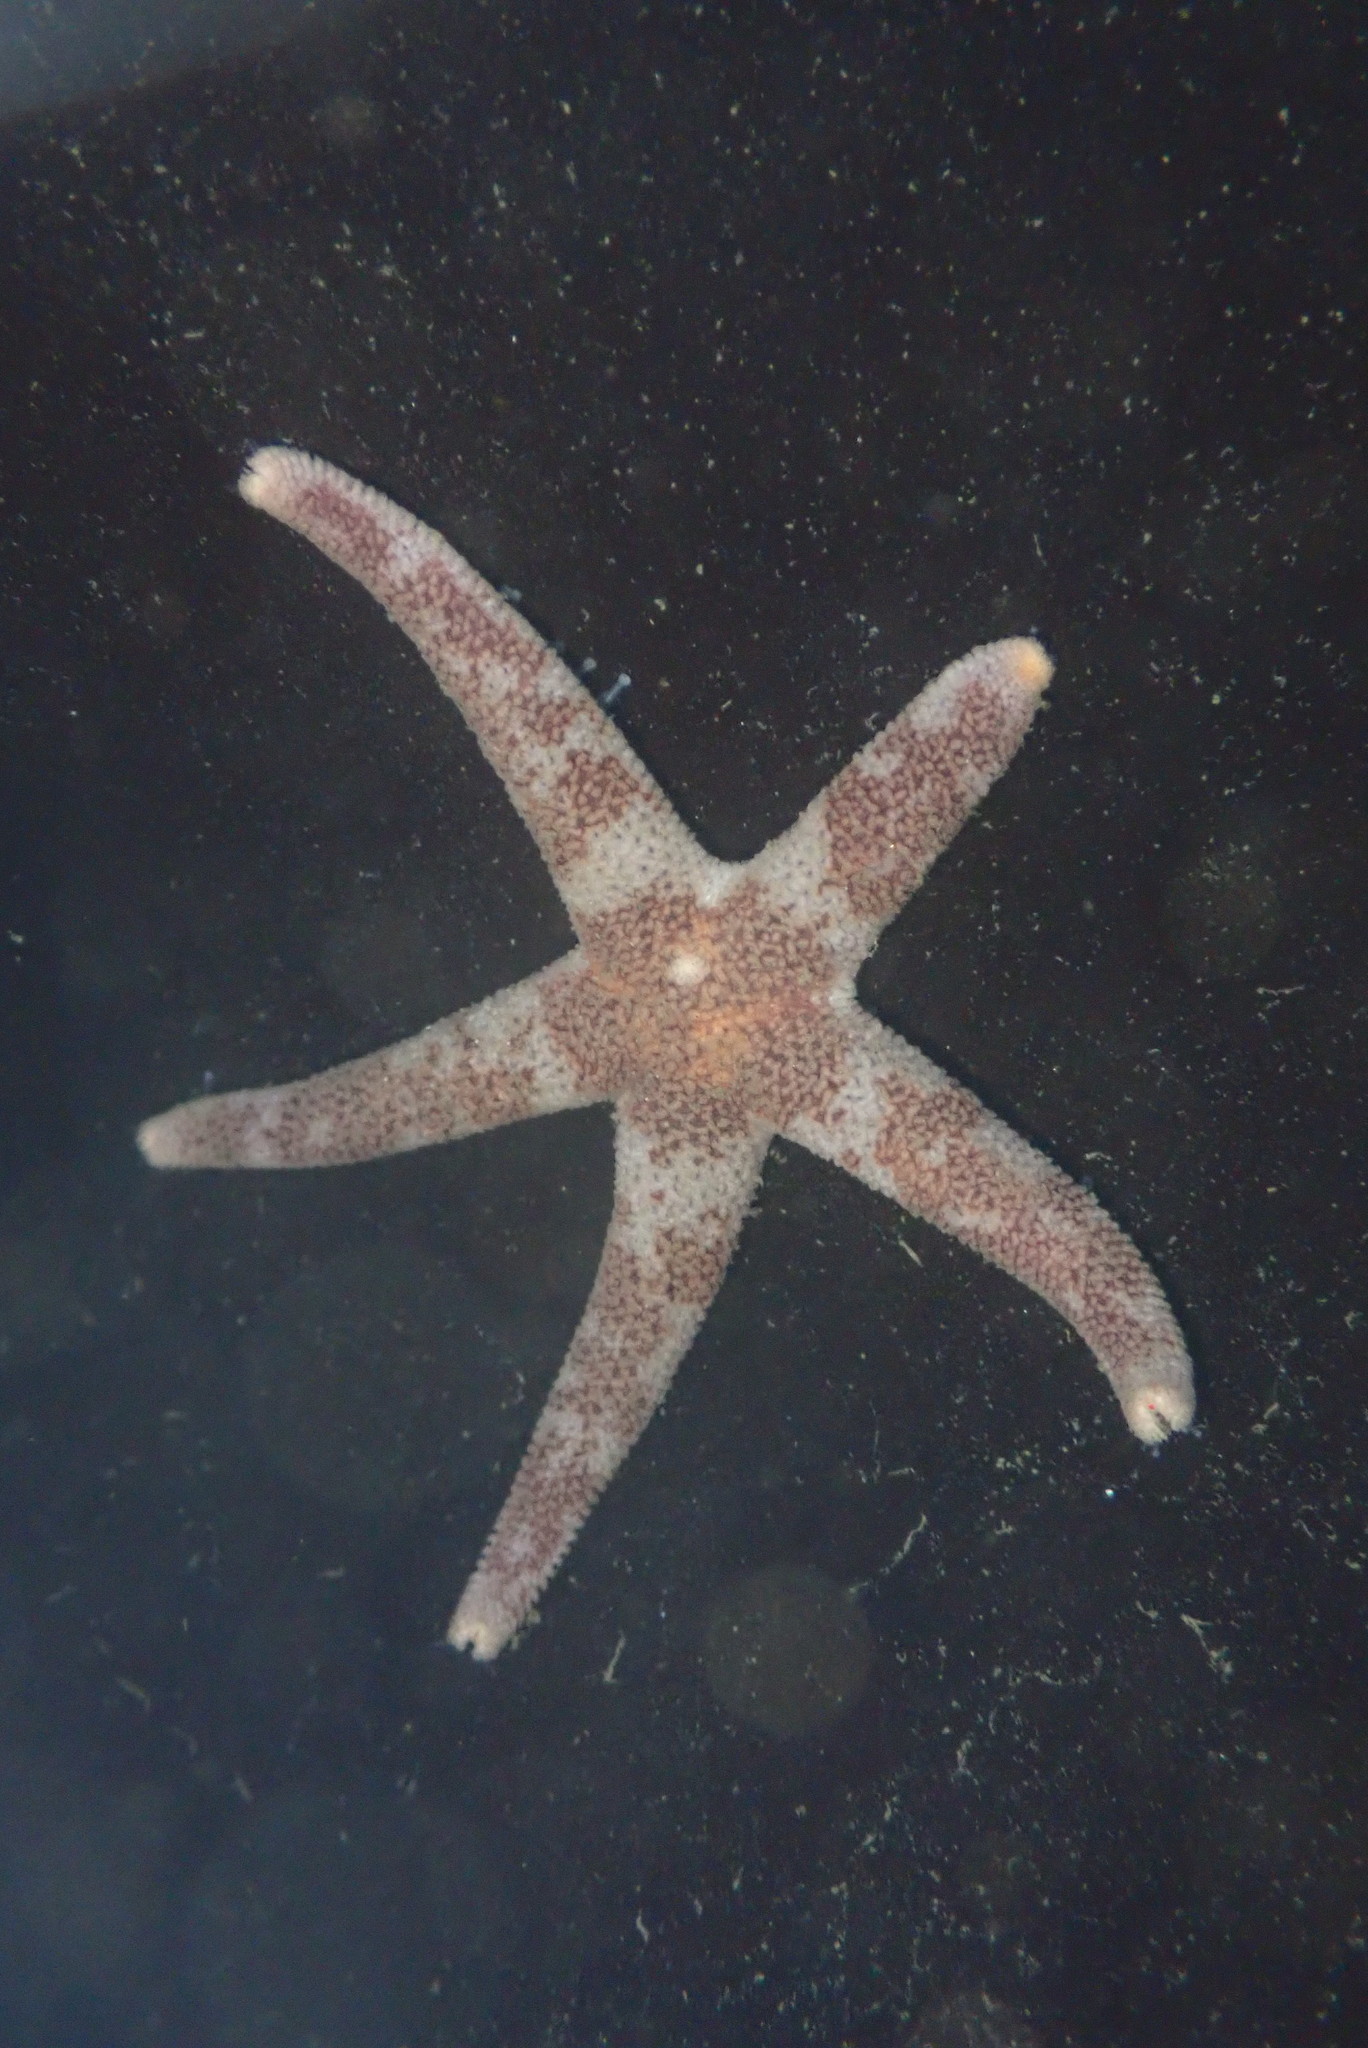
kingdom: Animalia
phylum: Echinodermata
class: Asteroidea
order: Spinulosida
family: Echinasteridae
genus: Henricia
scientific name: Henricia pumila
